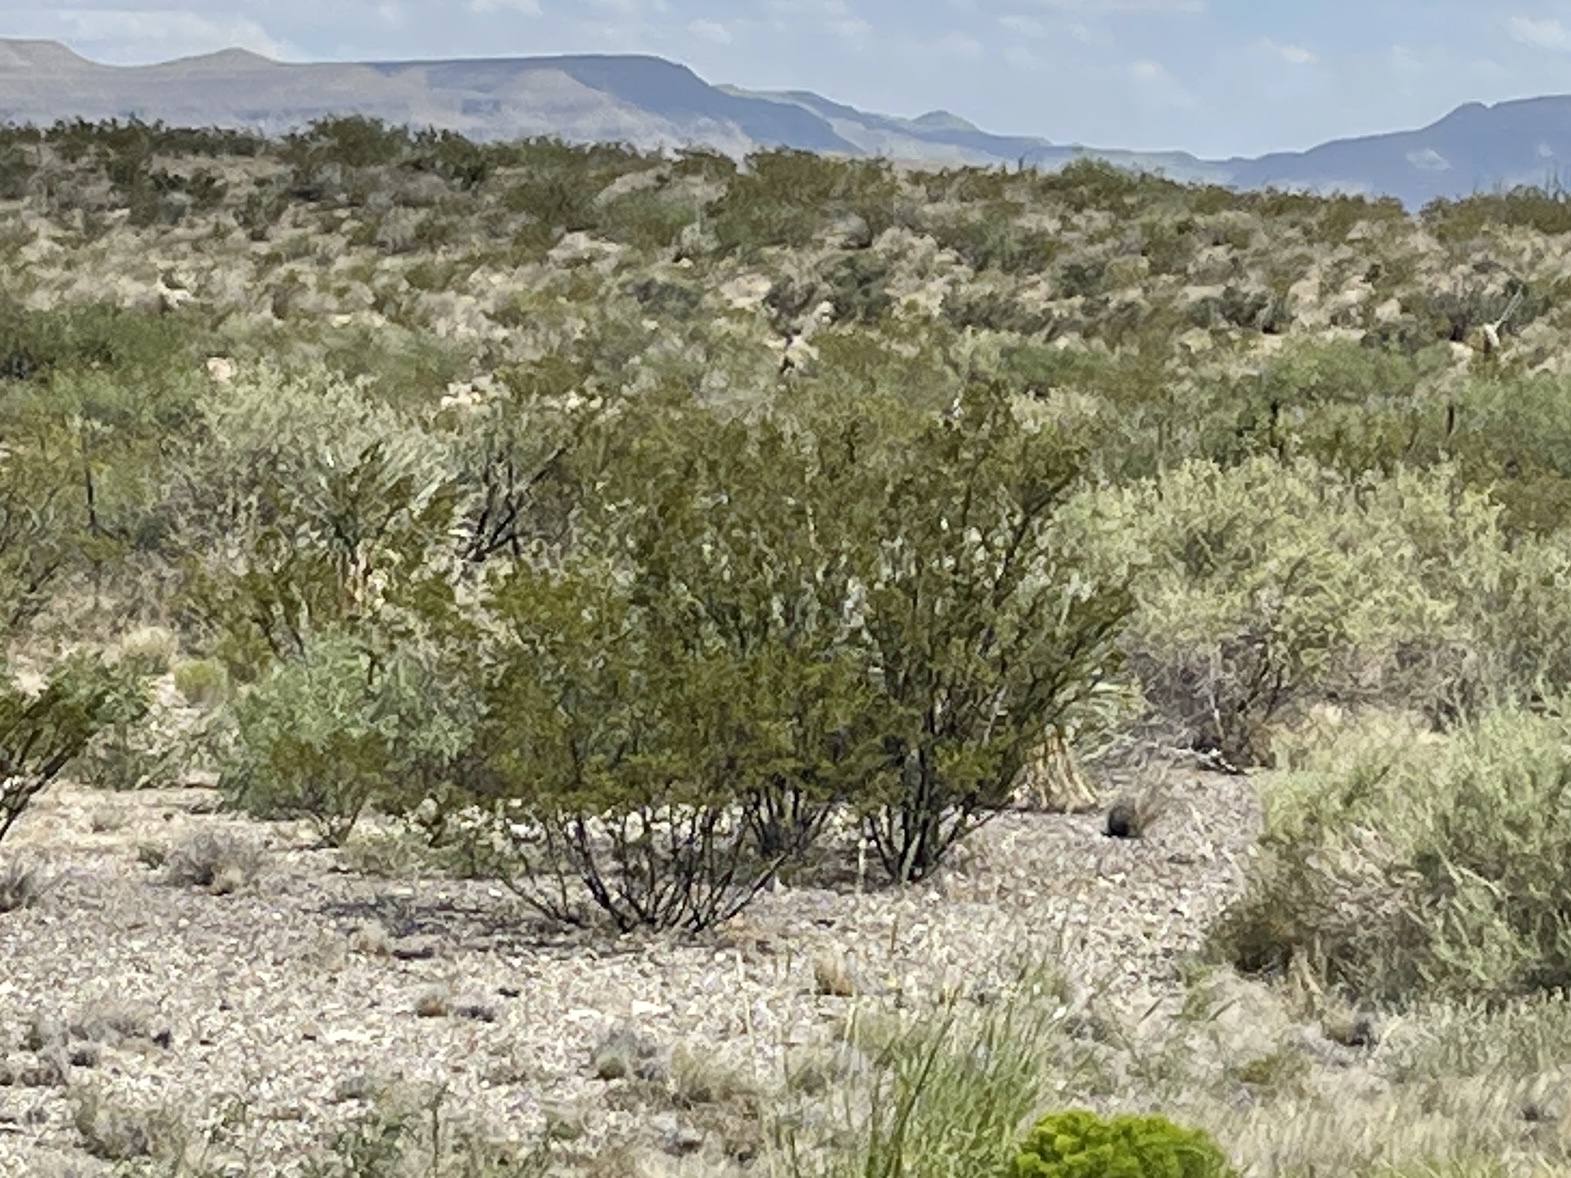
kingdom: Plantae
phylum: Tracheophyta
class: Magnoliopsida
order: Zygophyllales
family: Zygophyllaceae
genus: Larrea
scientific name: Larrea tridentata
